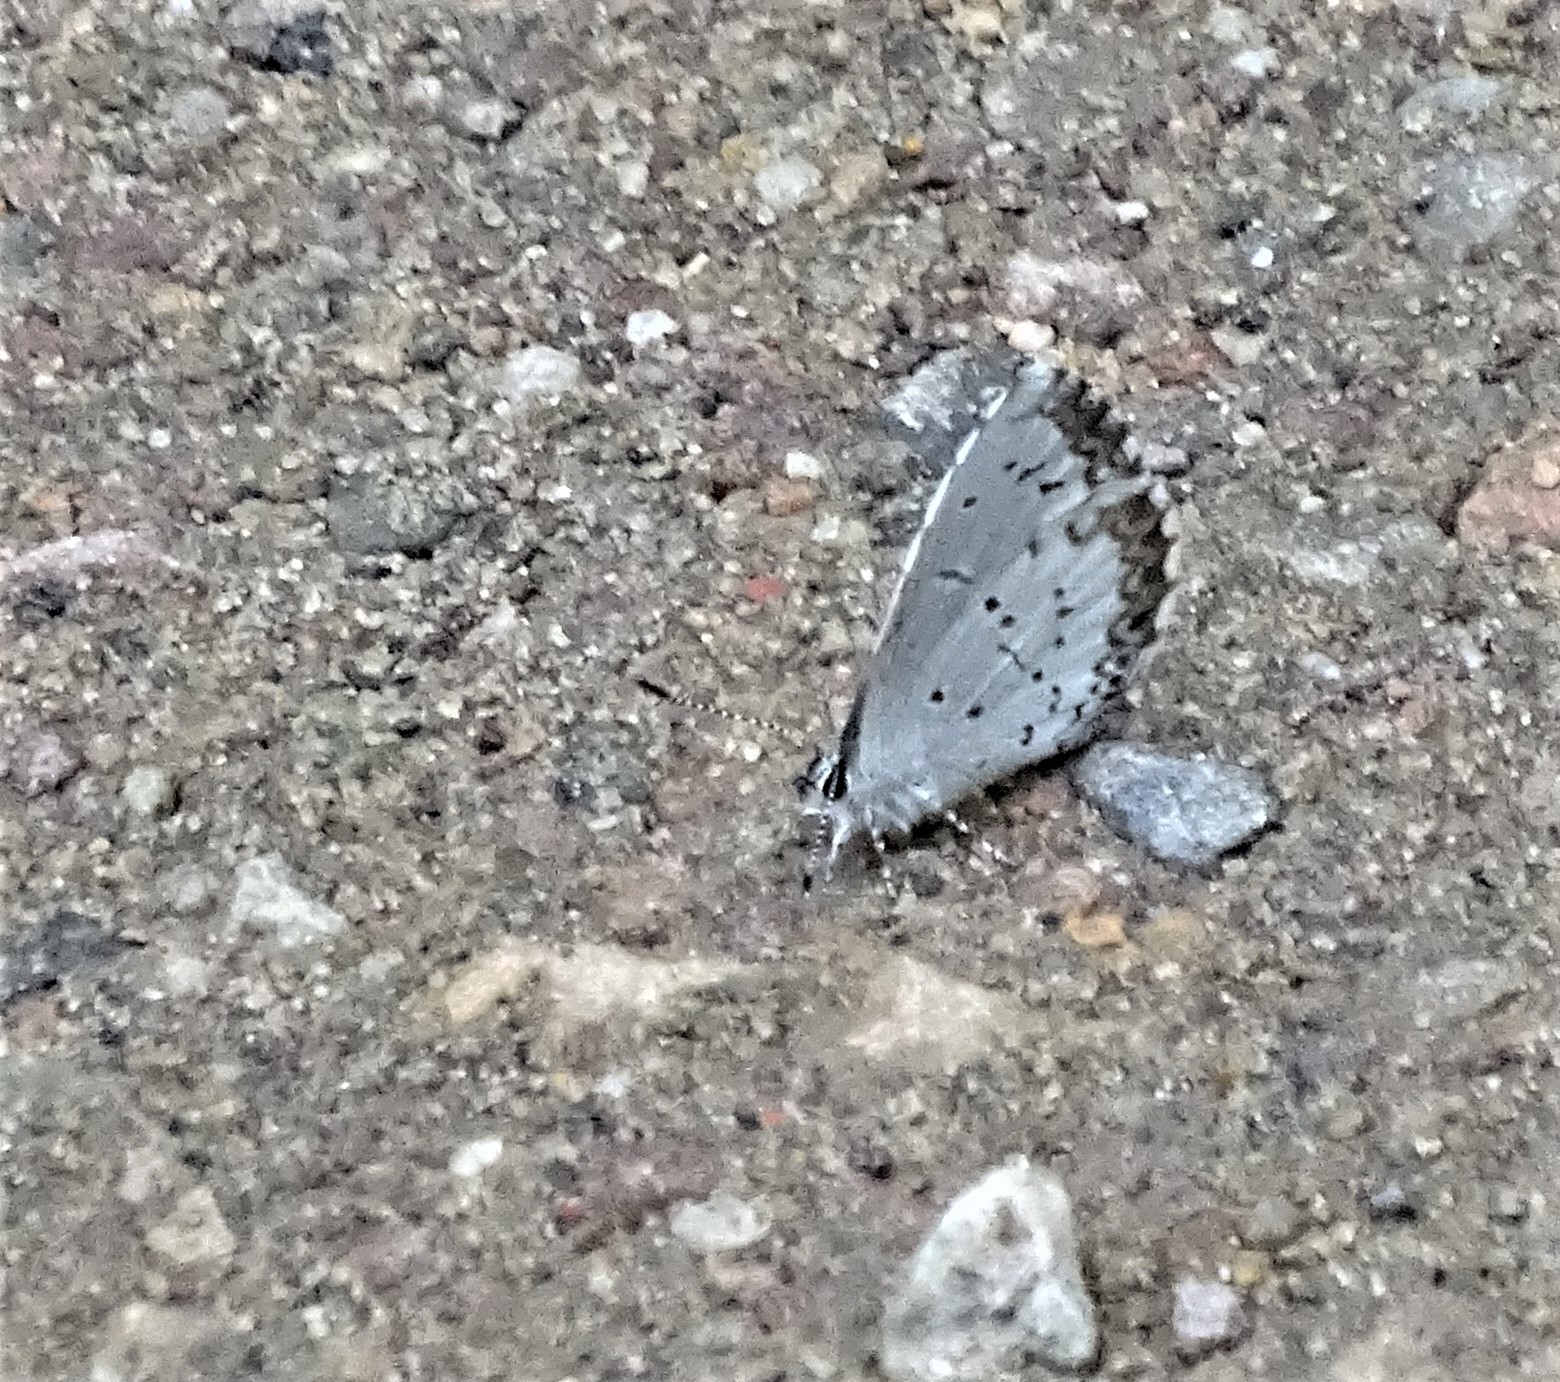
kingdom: Animalia
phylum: Arthropoda
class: Insecta
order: Lepidoptera
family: Lycaenidae
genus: Celastrina
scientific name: Celastrina lucia
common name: Lucia azure
